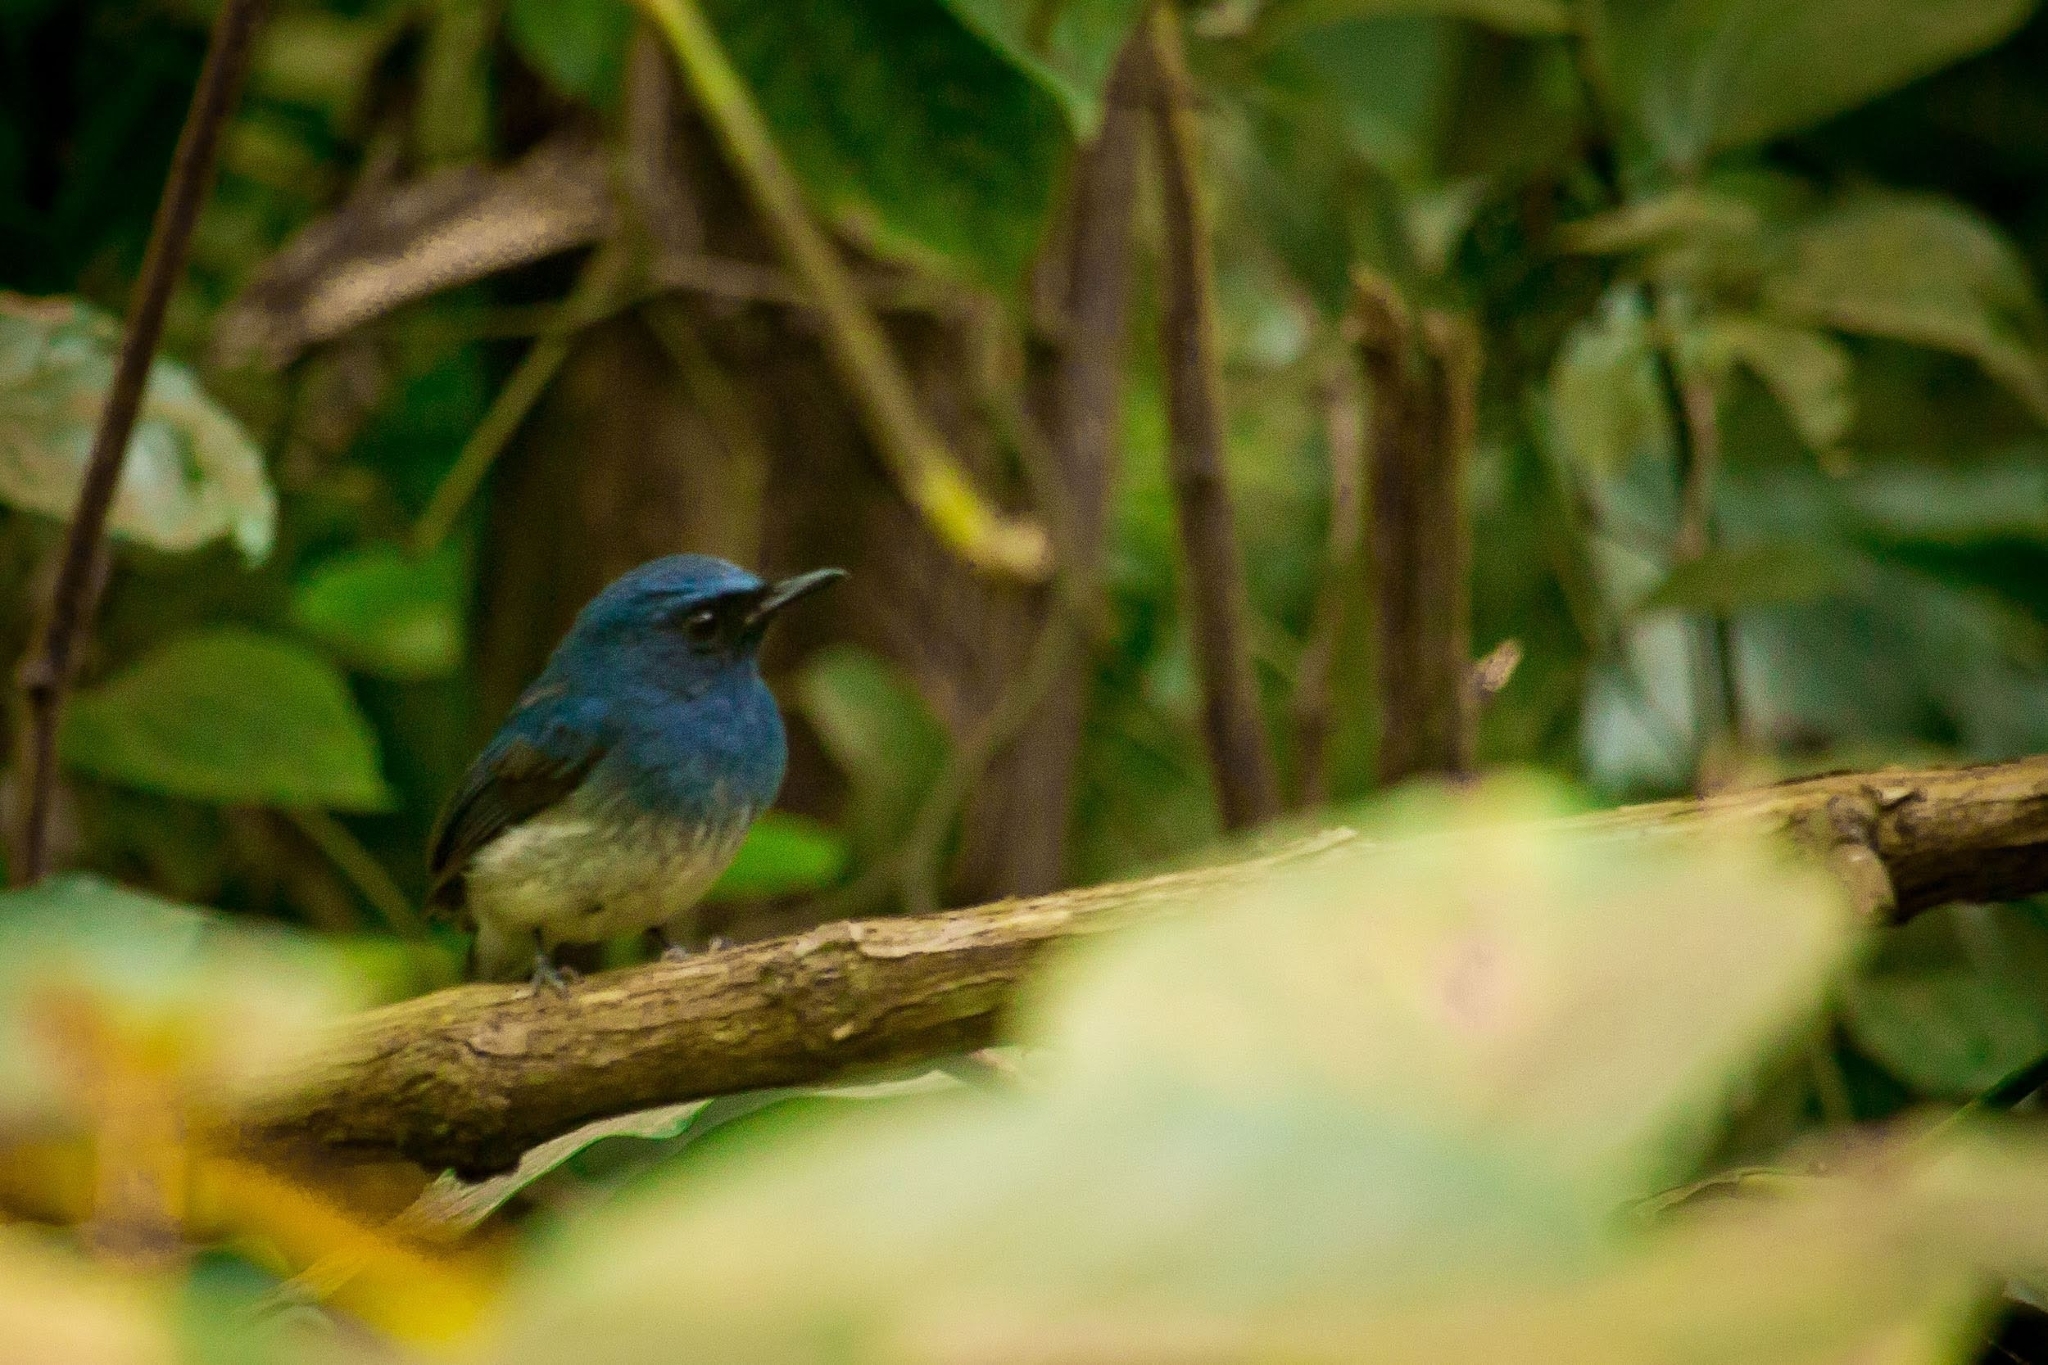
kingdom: Animalia
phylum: Chordata
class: Aves
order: Passeriformes
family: Muscicapidae
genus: Cyornis
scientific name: Cyornis pallidipes
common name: White-bellied blue flycatcher
